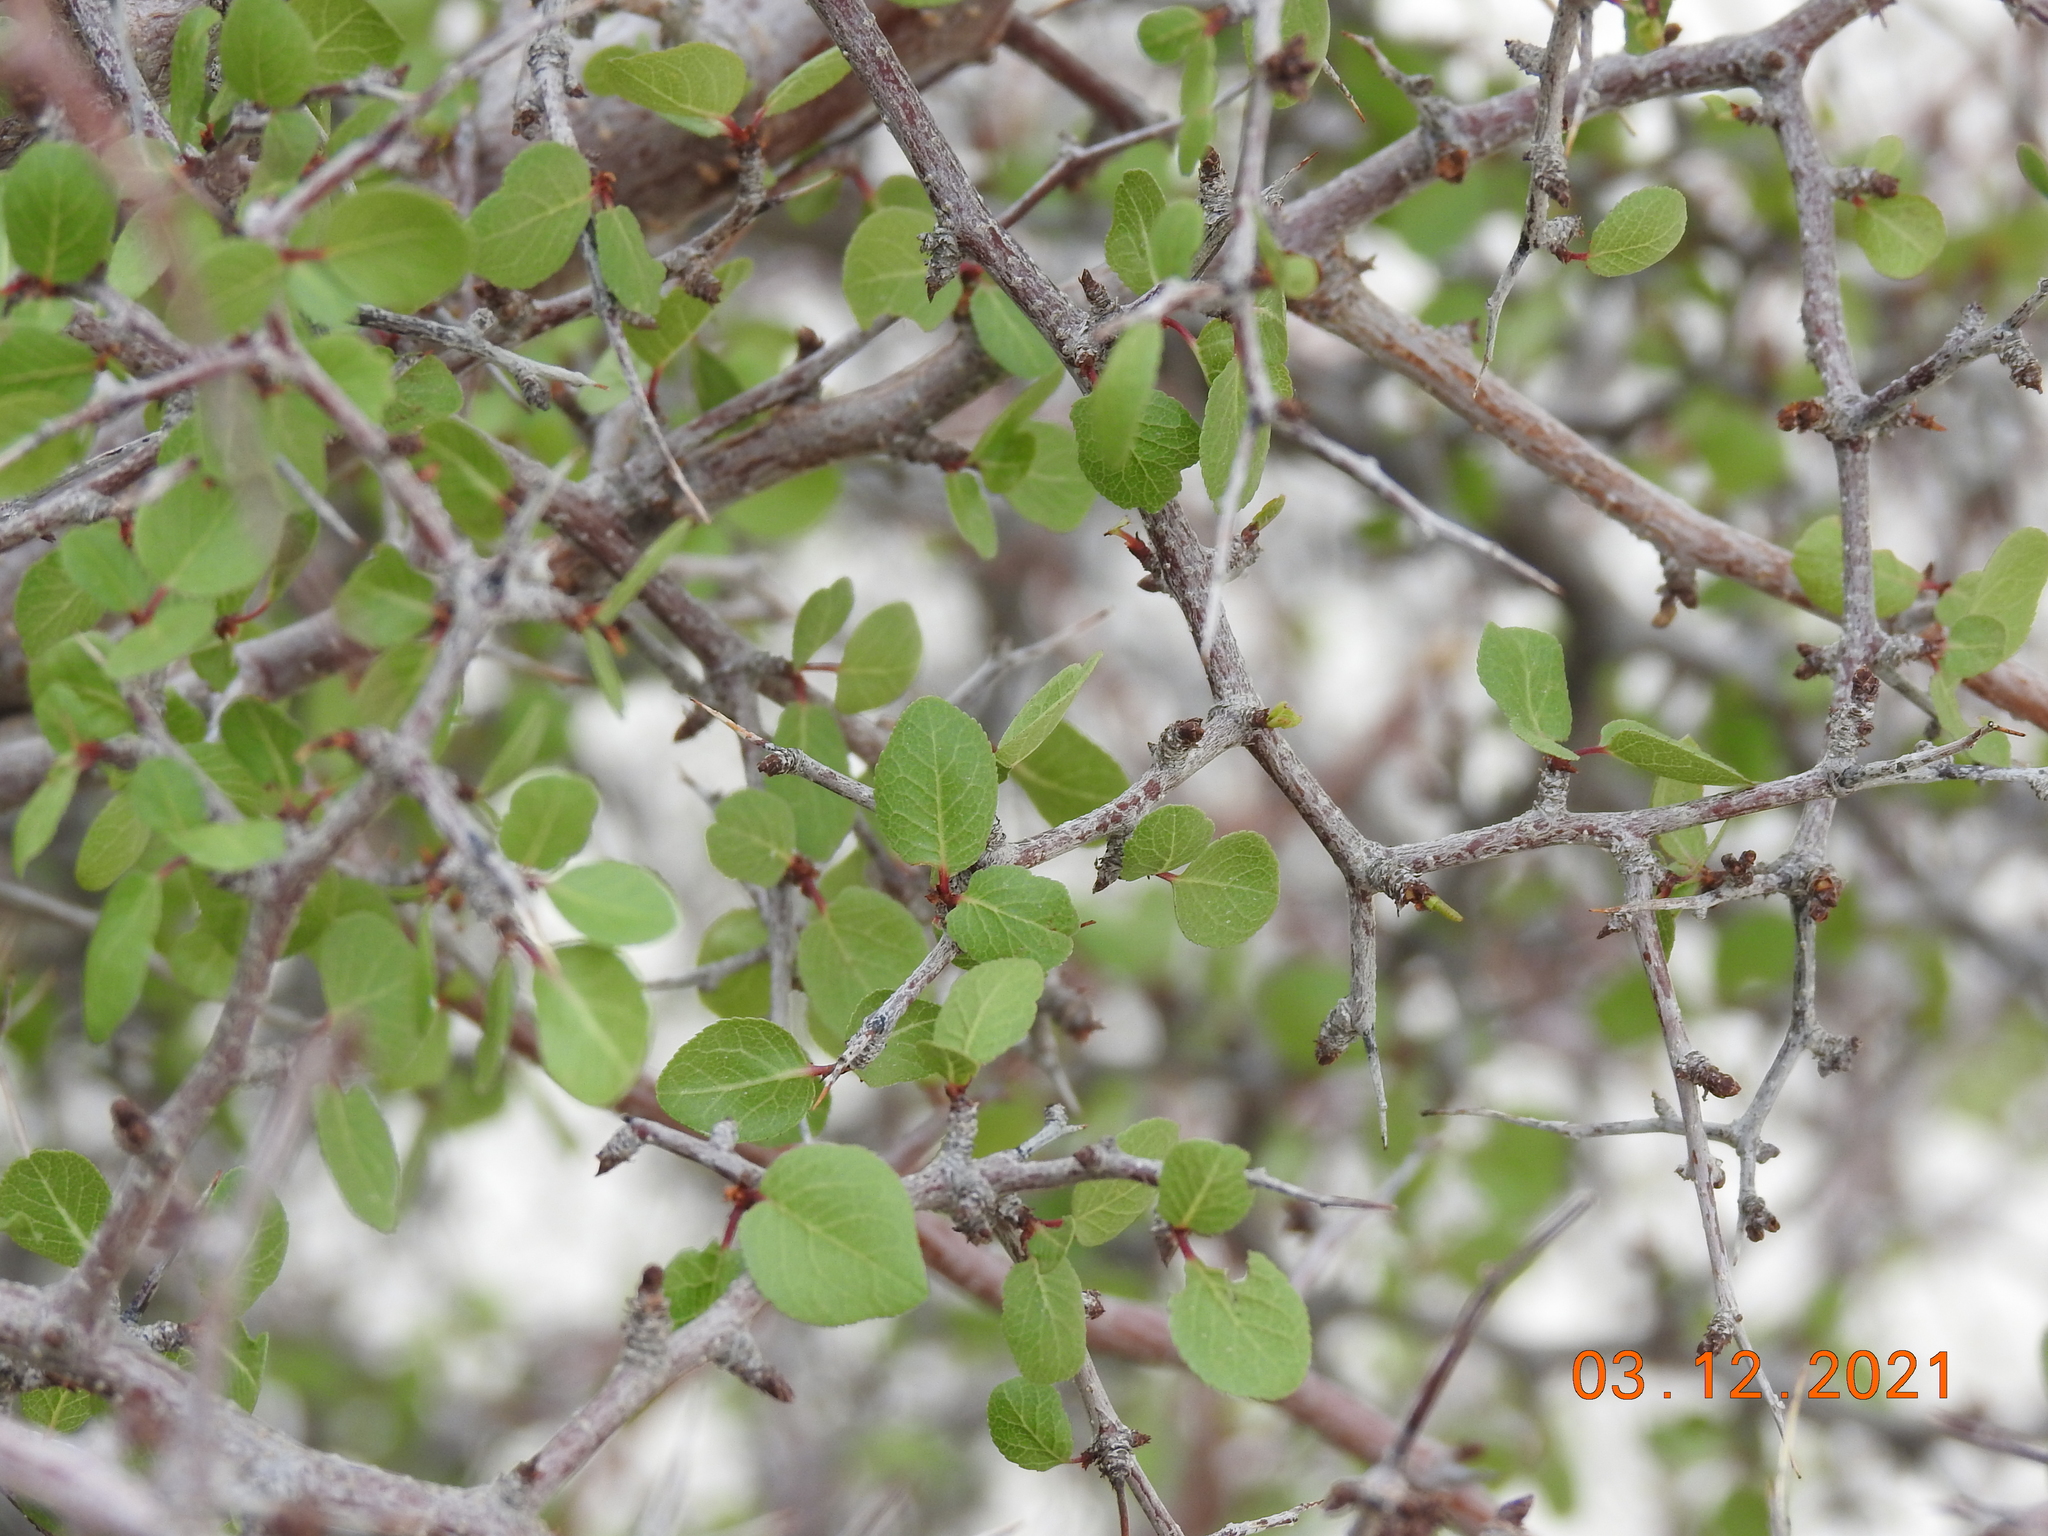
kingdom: Plantae
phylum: Tracheophyta
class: Magnoliopsida
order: Rosales
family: Rosaceae
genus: Prunus
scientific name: Prunus fremontii
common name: Desert apricot
